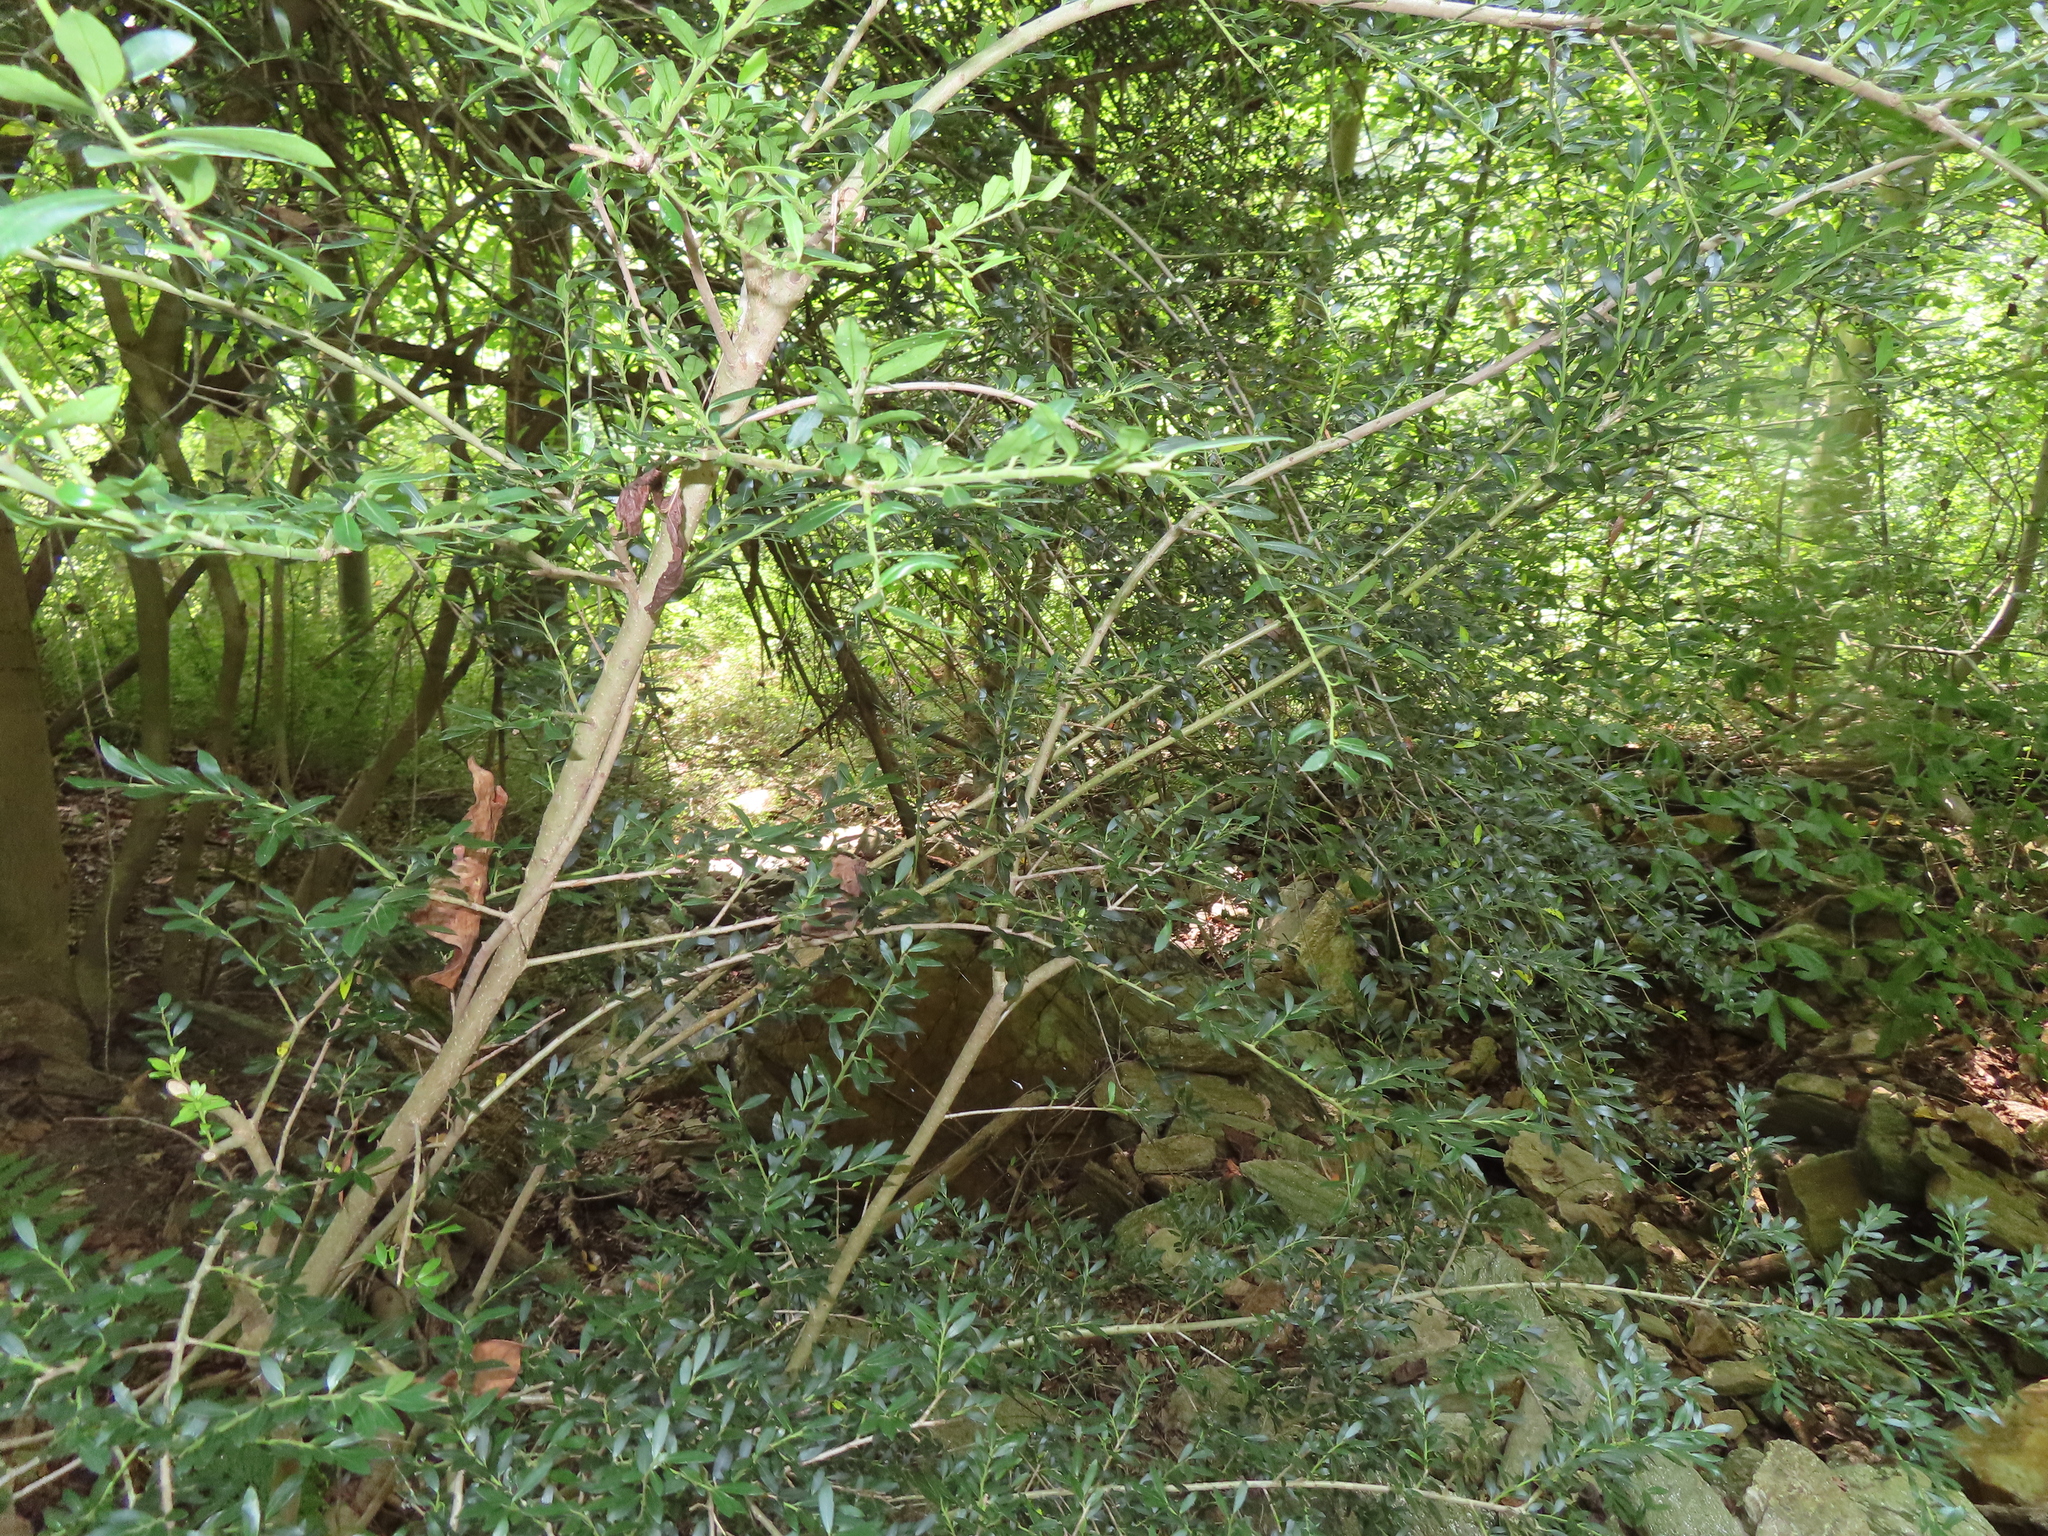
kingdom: Plantae
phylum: Tracheophyta
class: Magnoliopsida
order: Aquifoliales
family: Aquifoliaceae
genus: Ilex
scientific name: Ilex crenata
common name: Japanese holly
